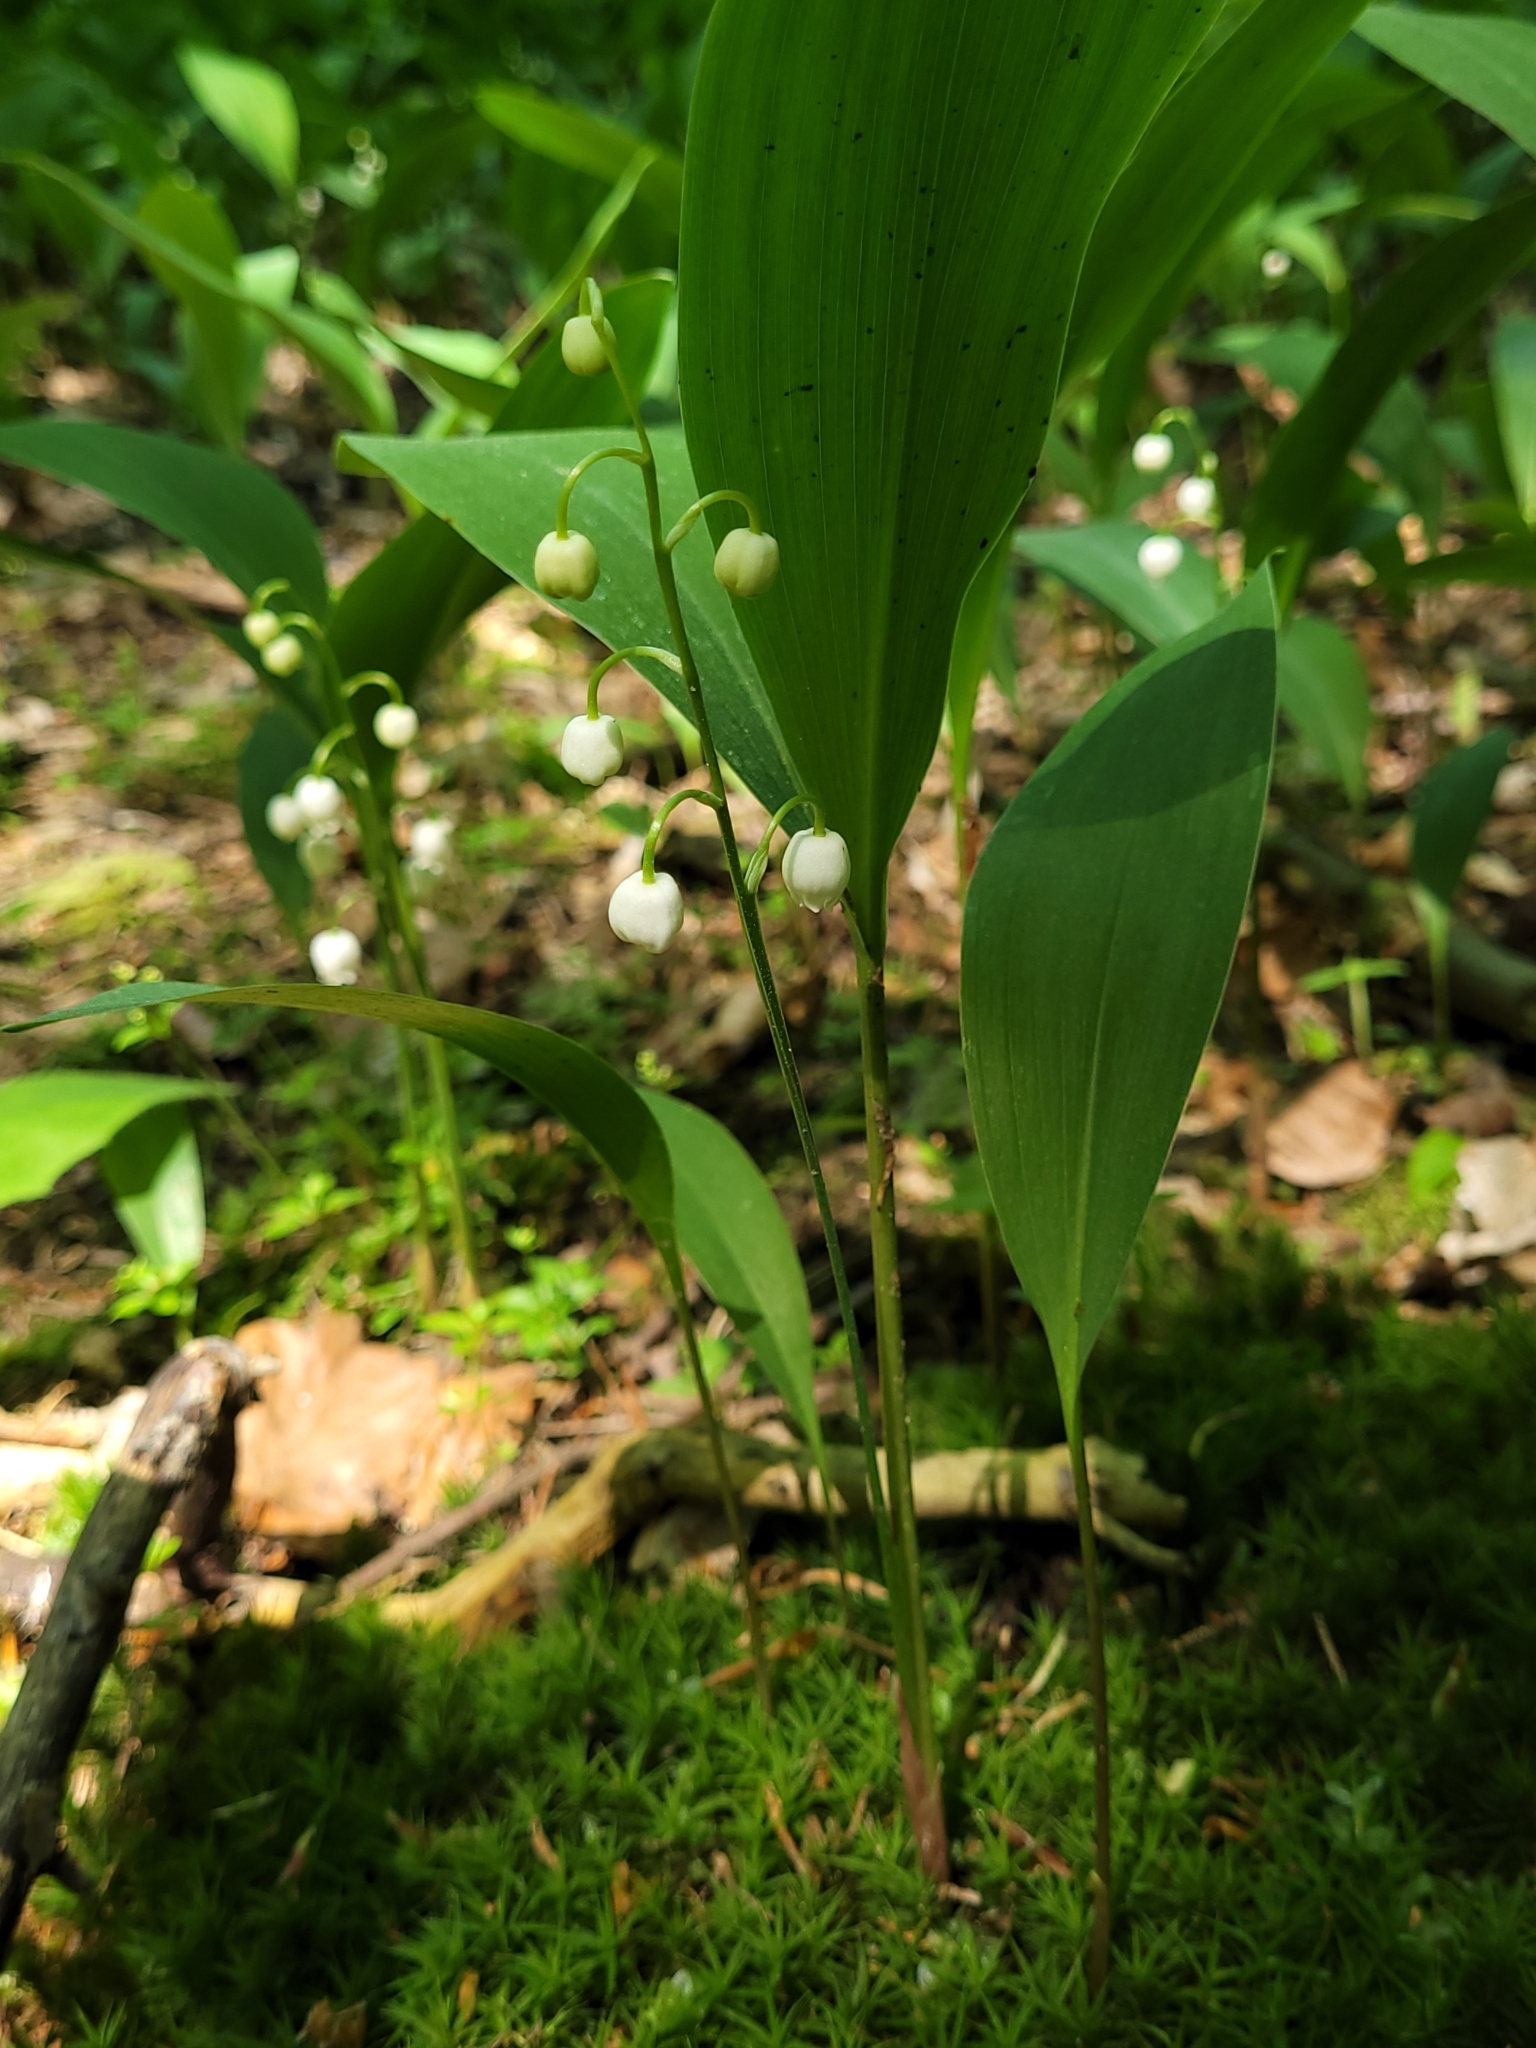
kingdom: Plantae
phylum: Tracheophyta
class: Liliopsida
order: Asparagales
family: Asparagaceae
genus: Convallaria
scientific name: Convallaria majalis
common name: Lily-of-the-valley
